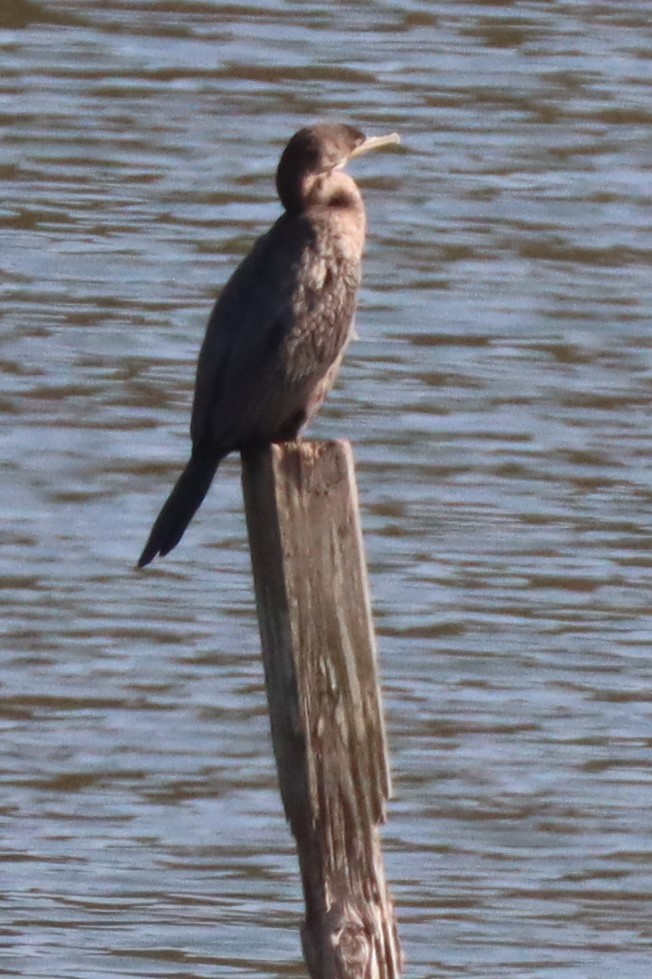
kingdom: Animalia
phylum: Chordata
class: Aves
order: Suliformes
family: Phalacrocoracidae
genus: Phalacrocorax
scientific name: Phalacrocorax brasilianus
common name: Neotropic cormorant
